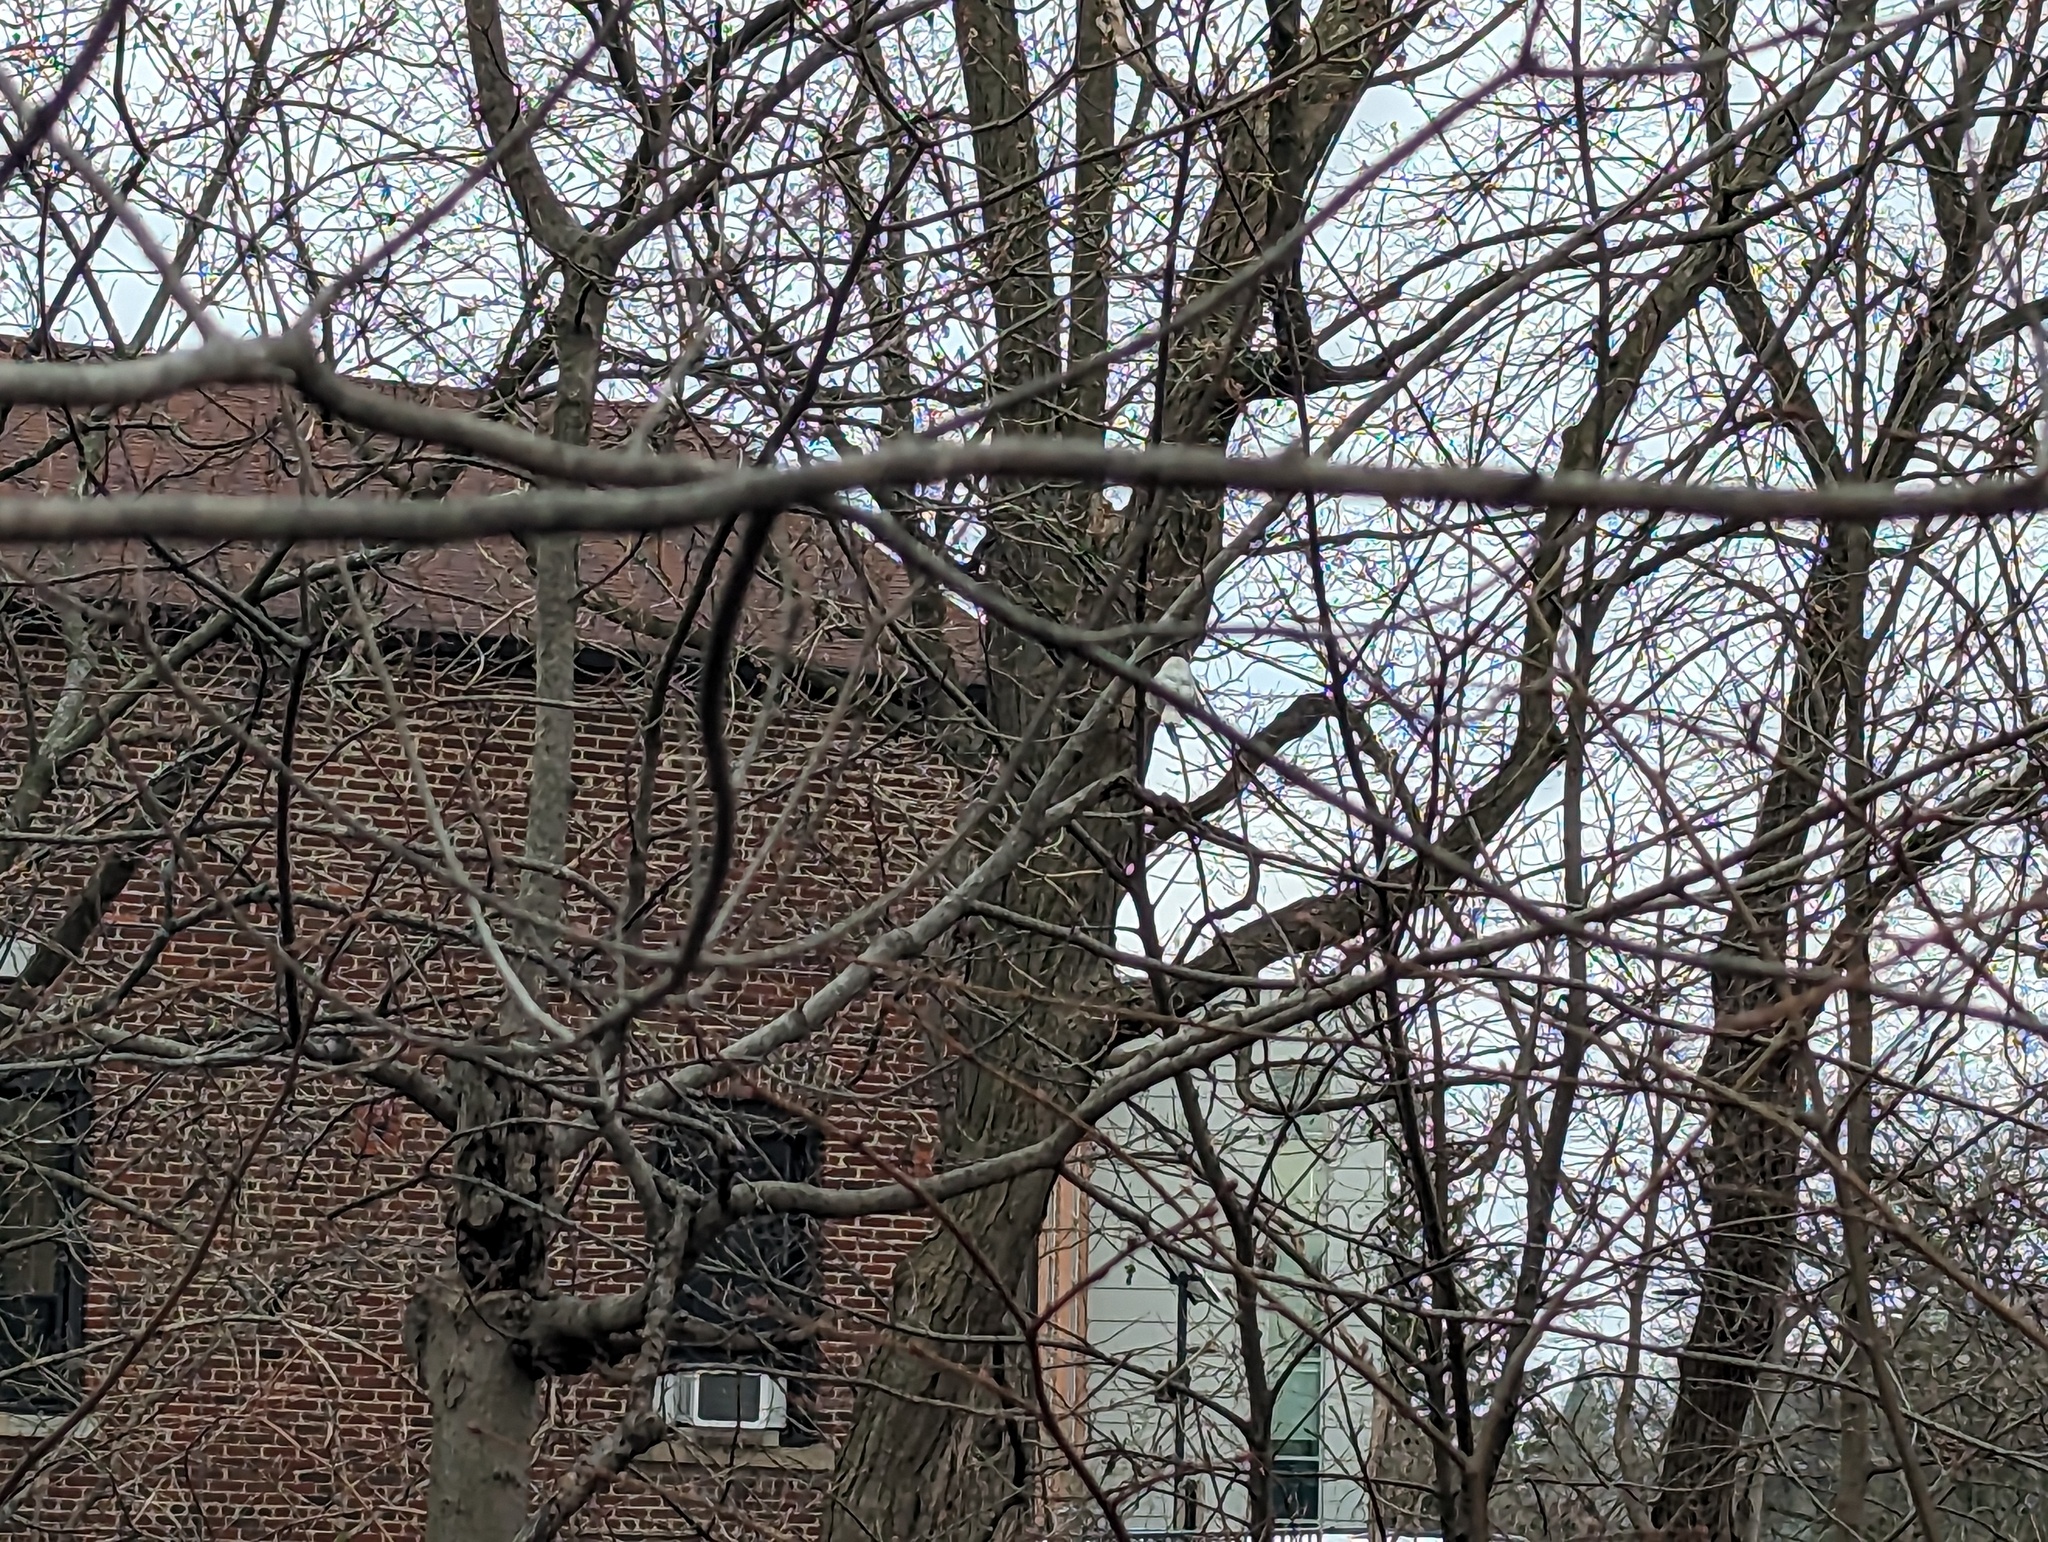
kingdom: Animalia
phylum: Chordata
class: Aves
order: Passeriformes
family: Paridae
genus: Poecile
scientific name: Poecile atricapillus
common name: Black-capped chickadee
